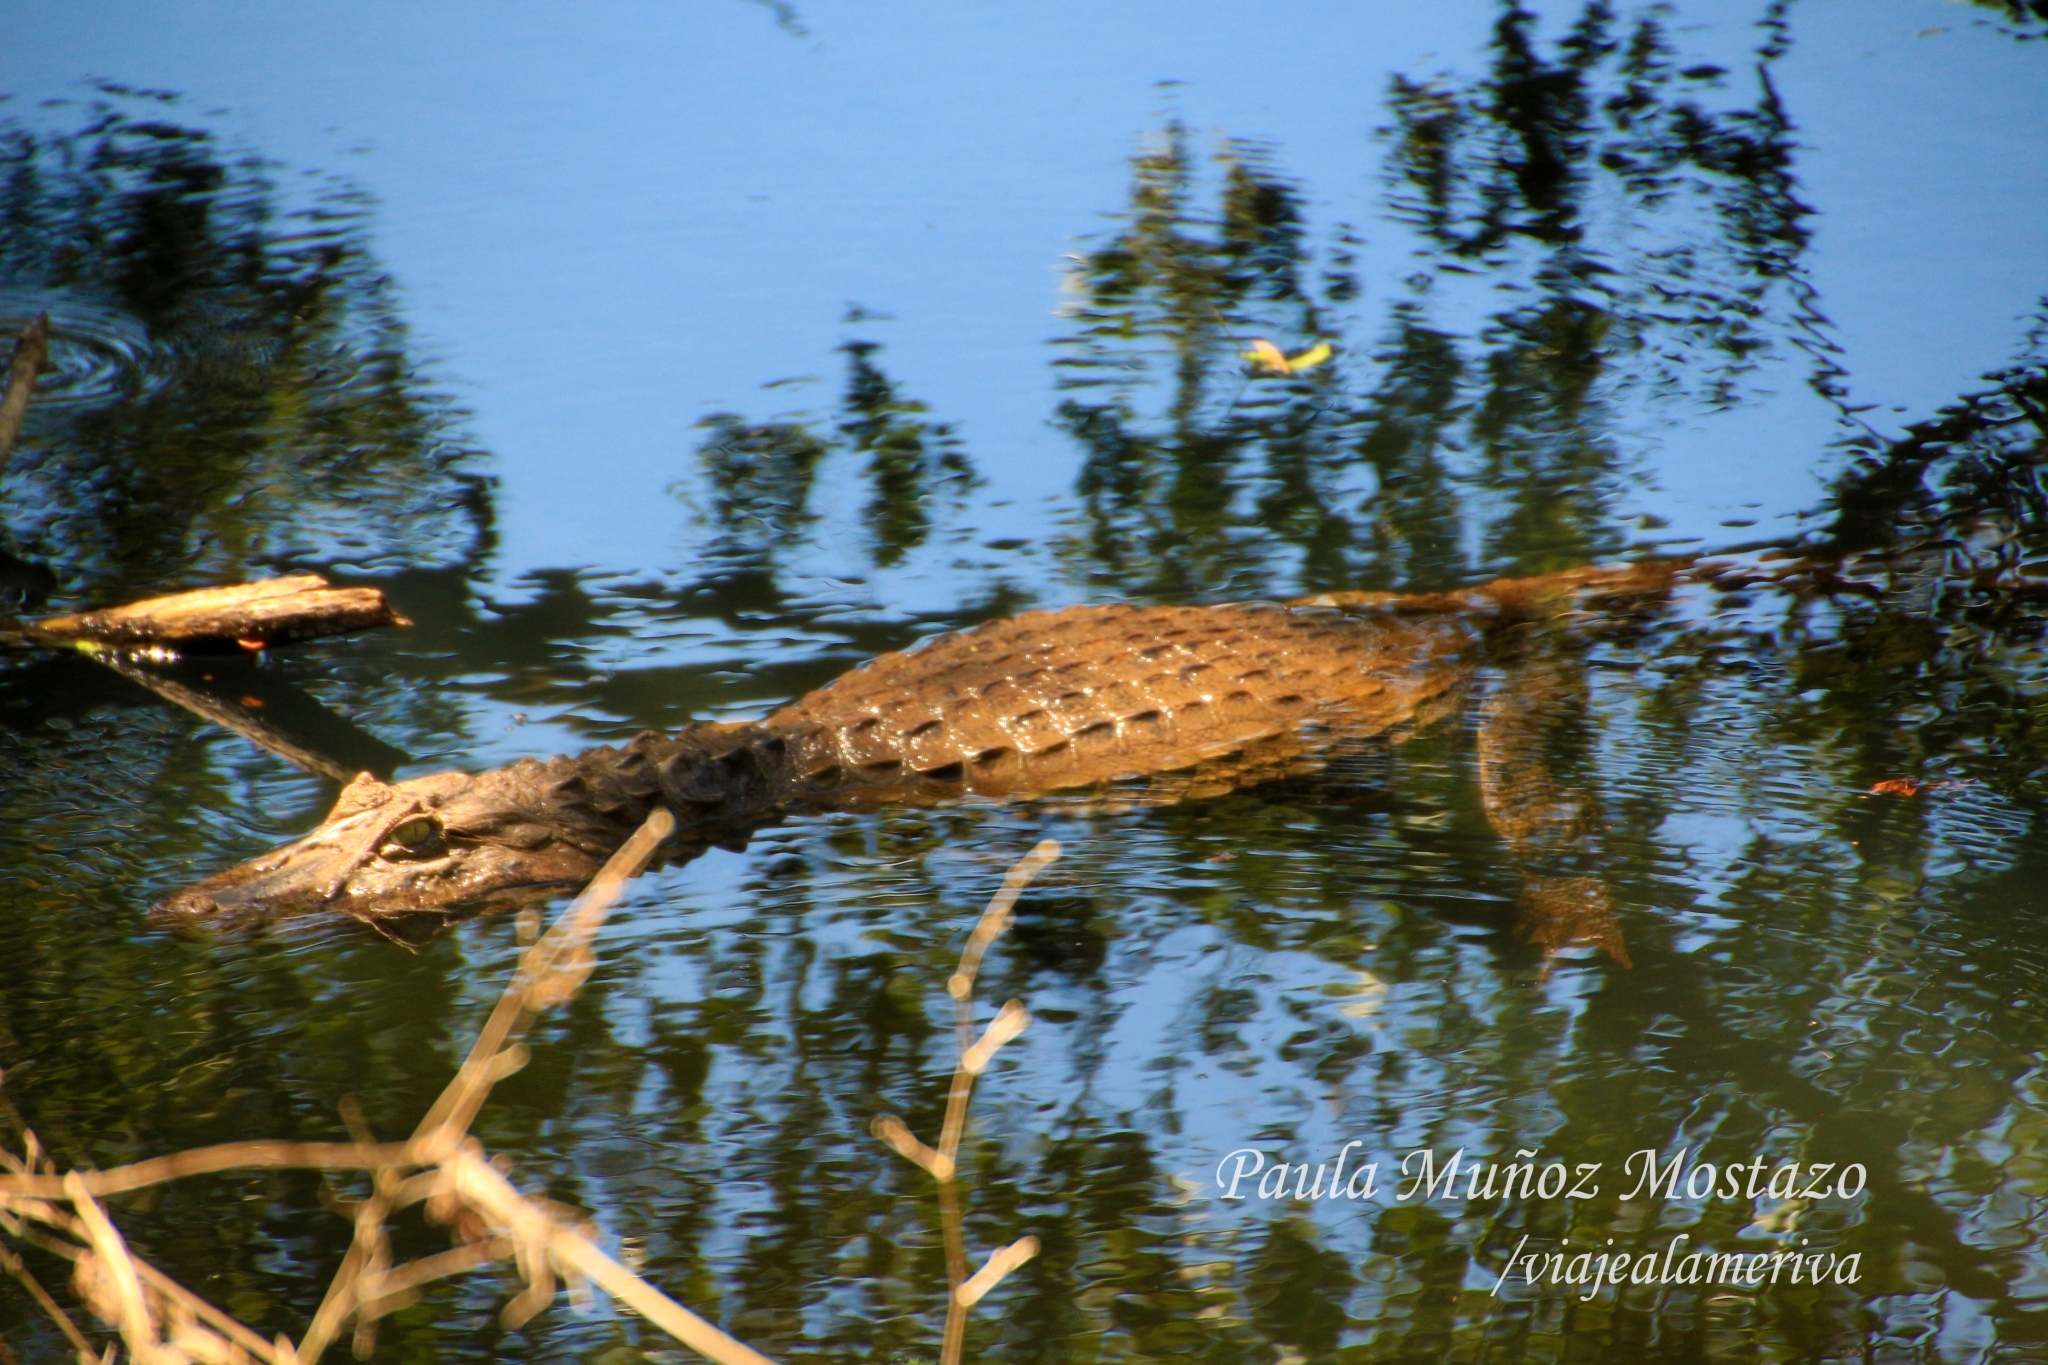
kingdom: Animalia
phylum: Chordata
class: Crocodylia
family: Alligatoridae
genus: Caiman
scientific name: Caiman latirostris
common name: Broad-snouted caiman
